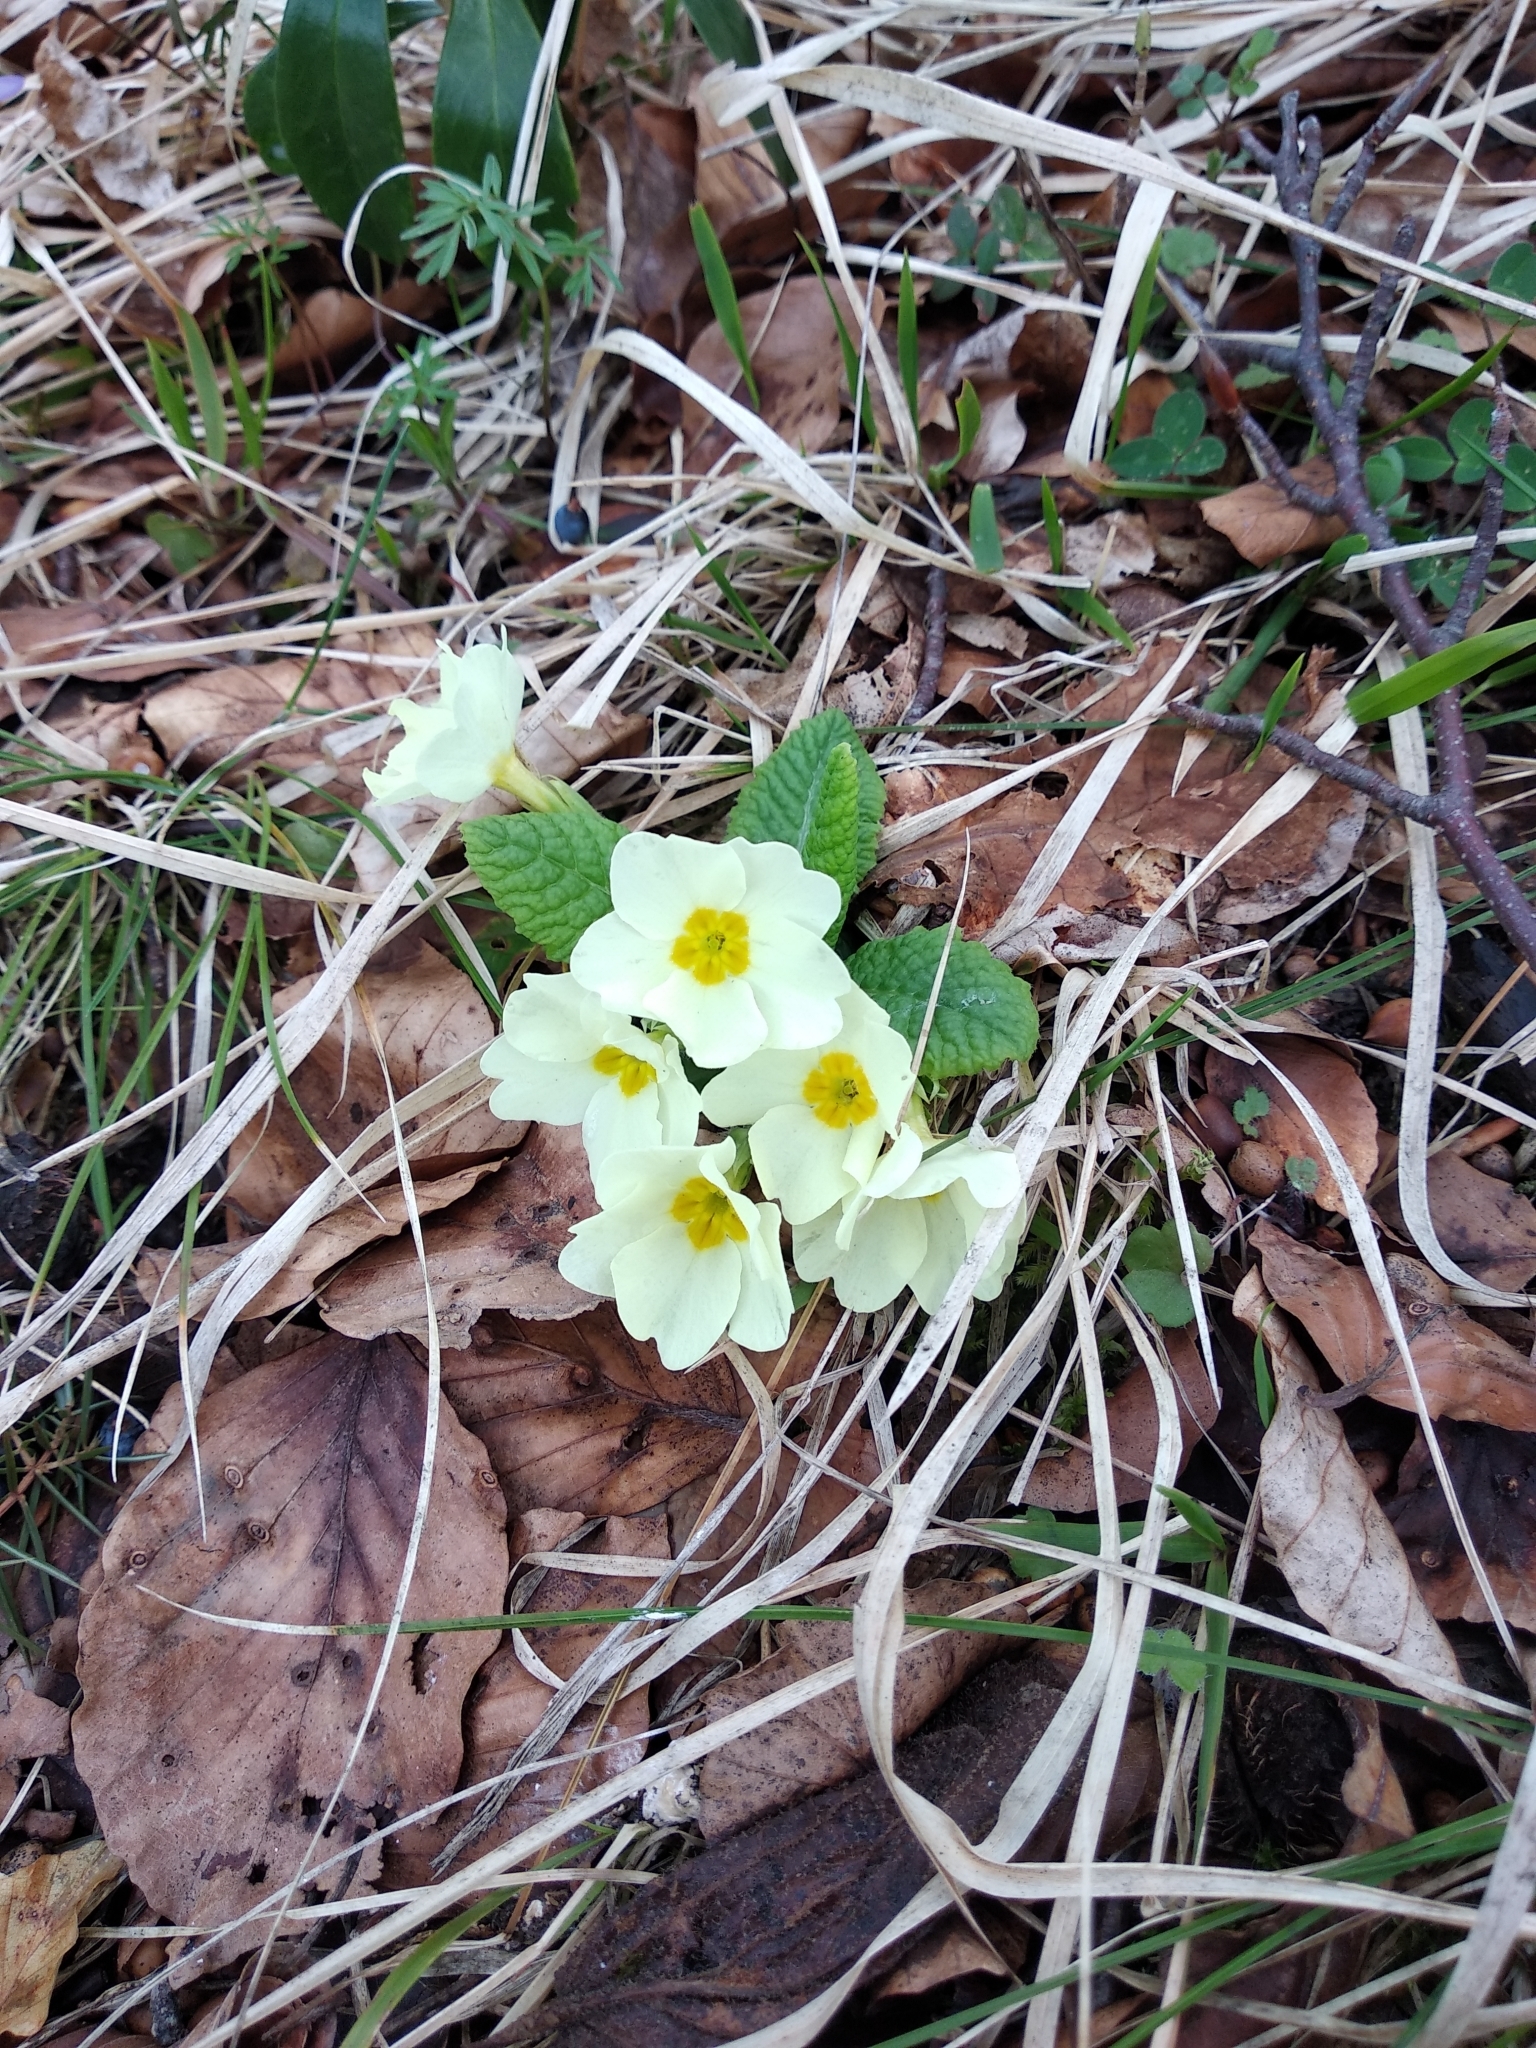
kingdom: Plantae
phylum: Tracheophyta
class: Magnoliopsida
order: Ericales
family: Primulaceae
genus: Primula
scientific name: Primula vulgaris
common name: Primrose
